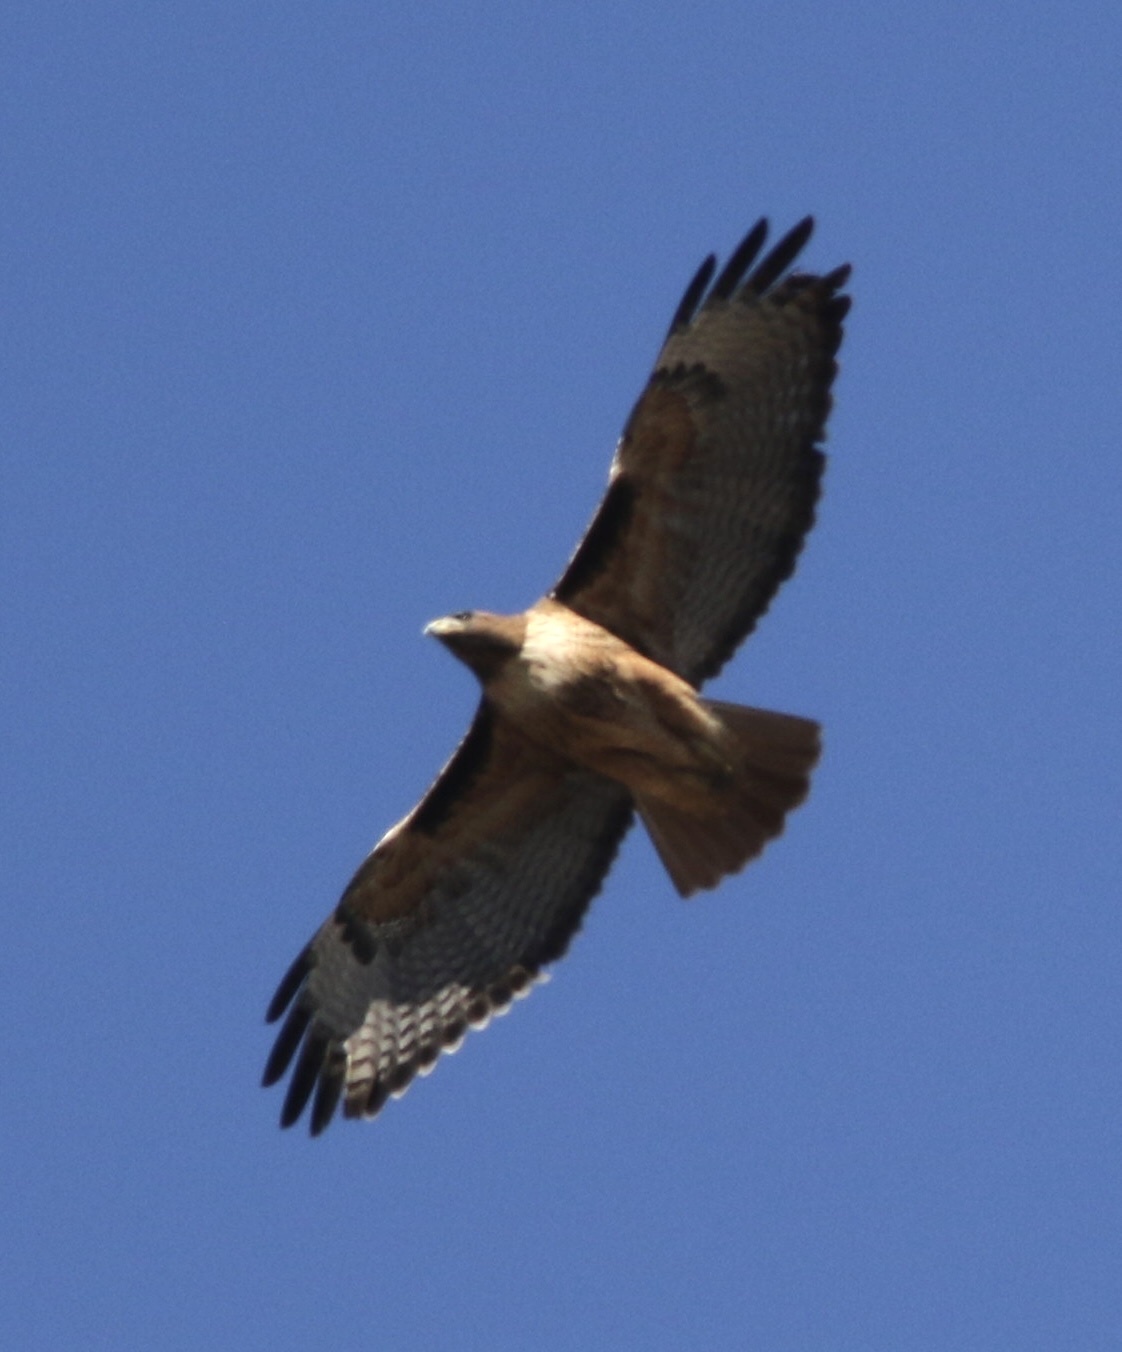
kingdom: Animalia
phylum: Chordata
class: Aves
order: Accipitriformes
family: Accipitridae
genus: Buteo
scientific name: Buteo jamaicensis
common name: Red-tailed hawk
